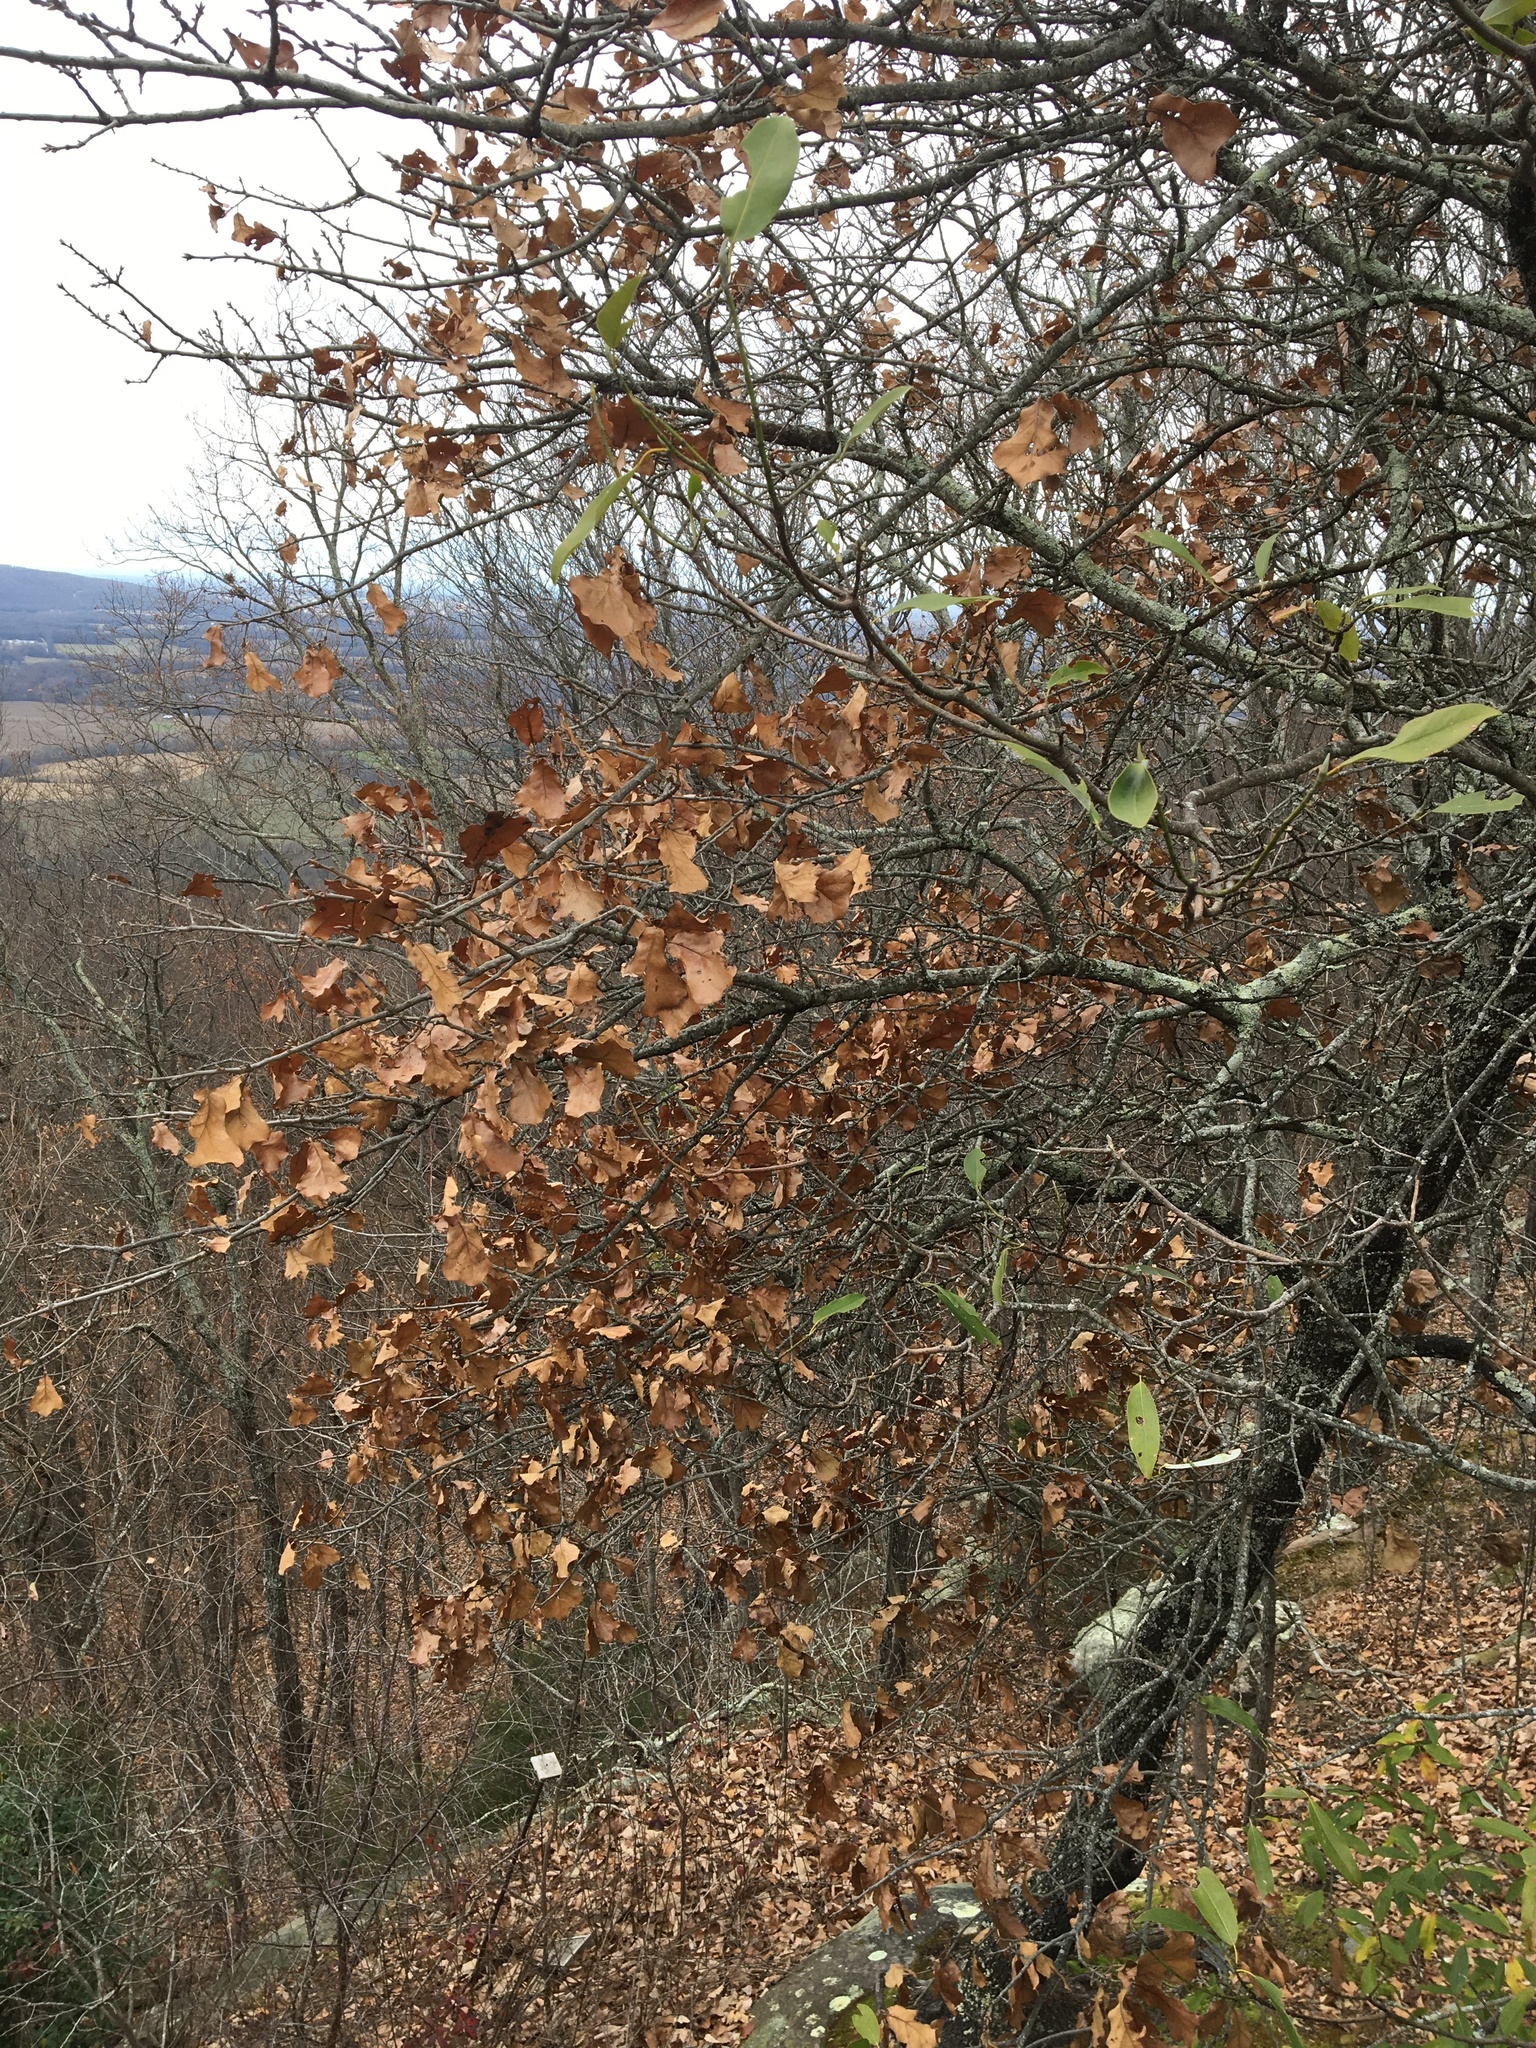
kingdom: Plantae
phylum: Tracheophyta
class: Magnoliopsida
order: Fagales
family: Fagaceae
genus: Quercus
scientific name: Quercus marilandica
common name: Blackjack oak
